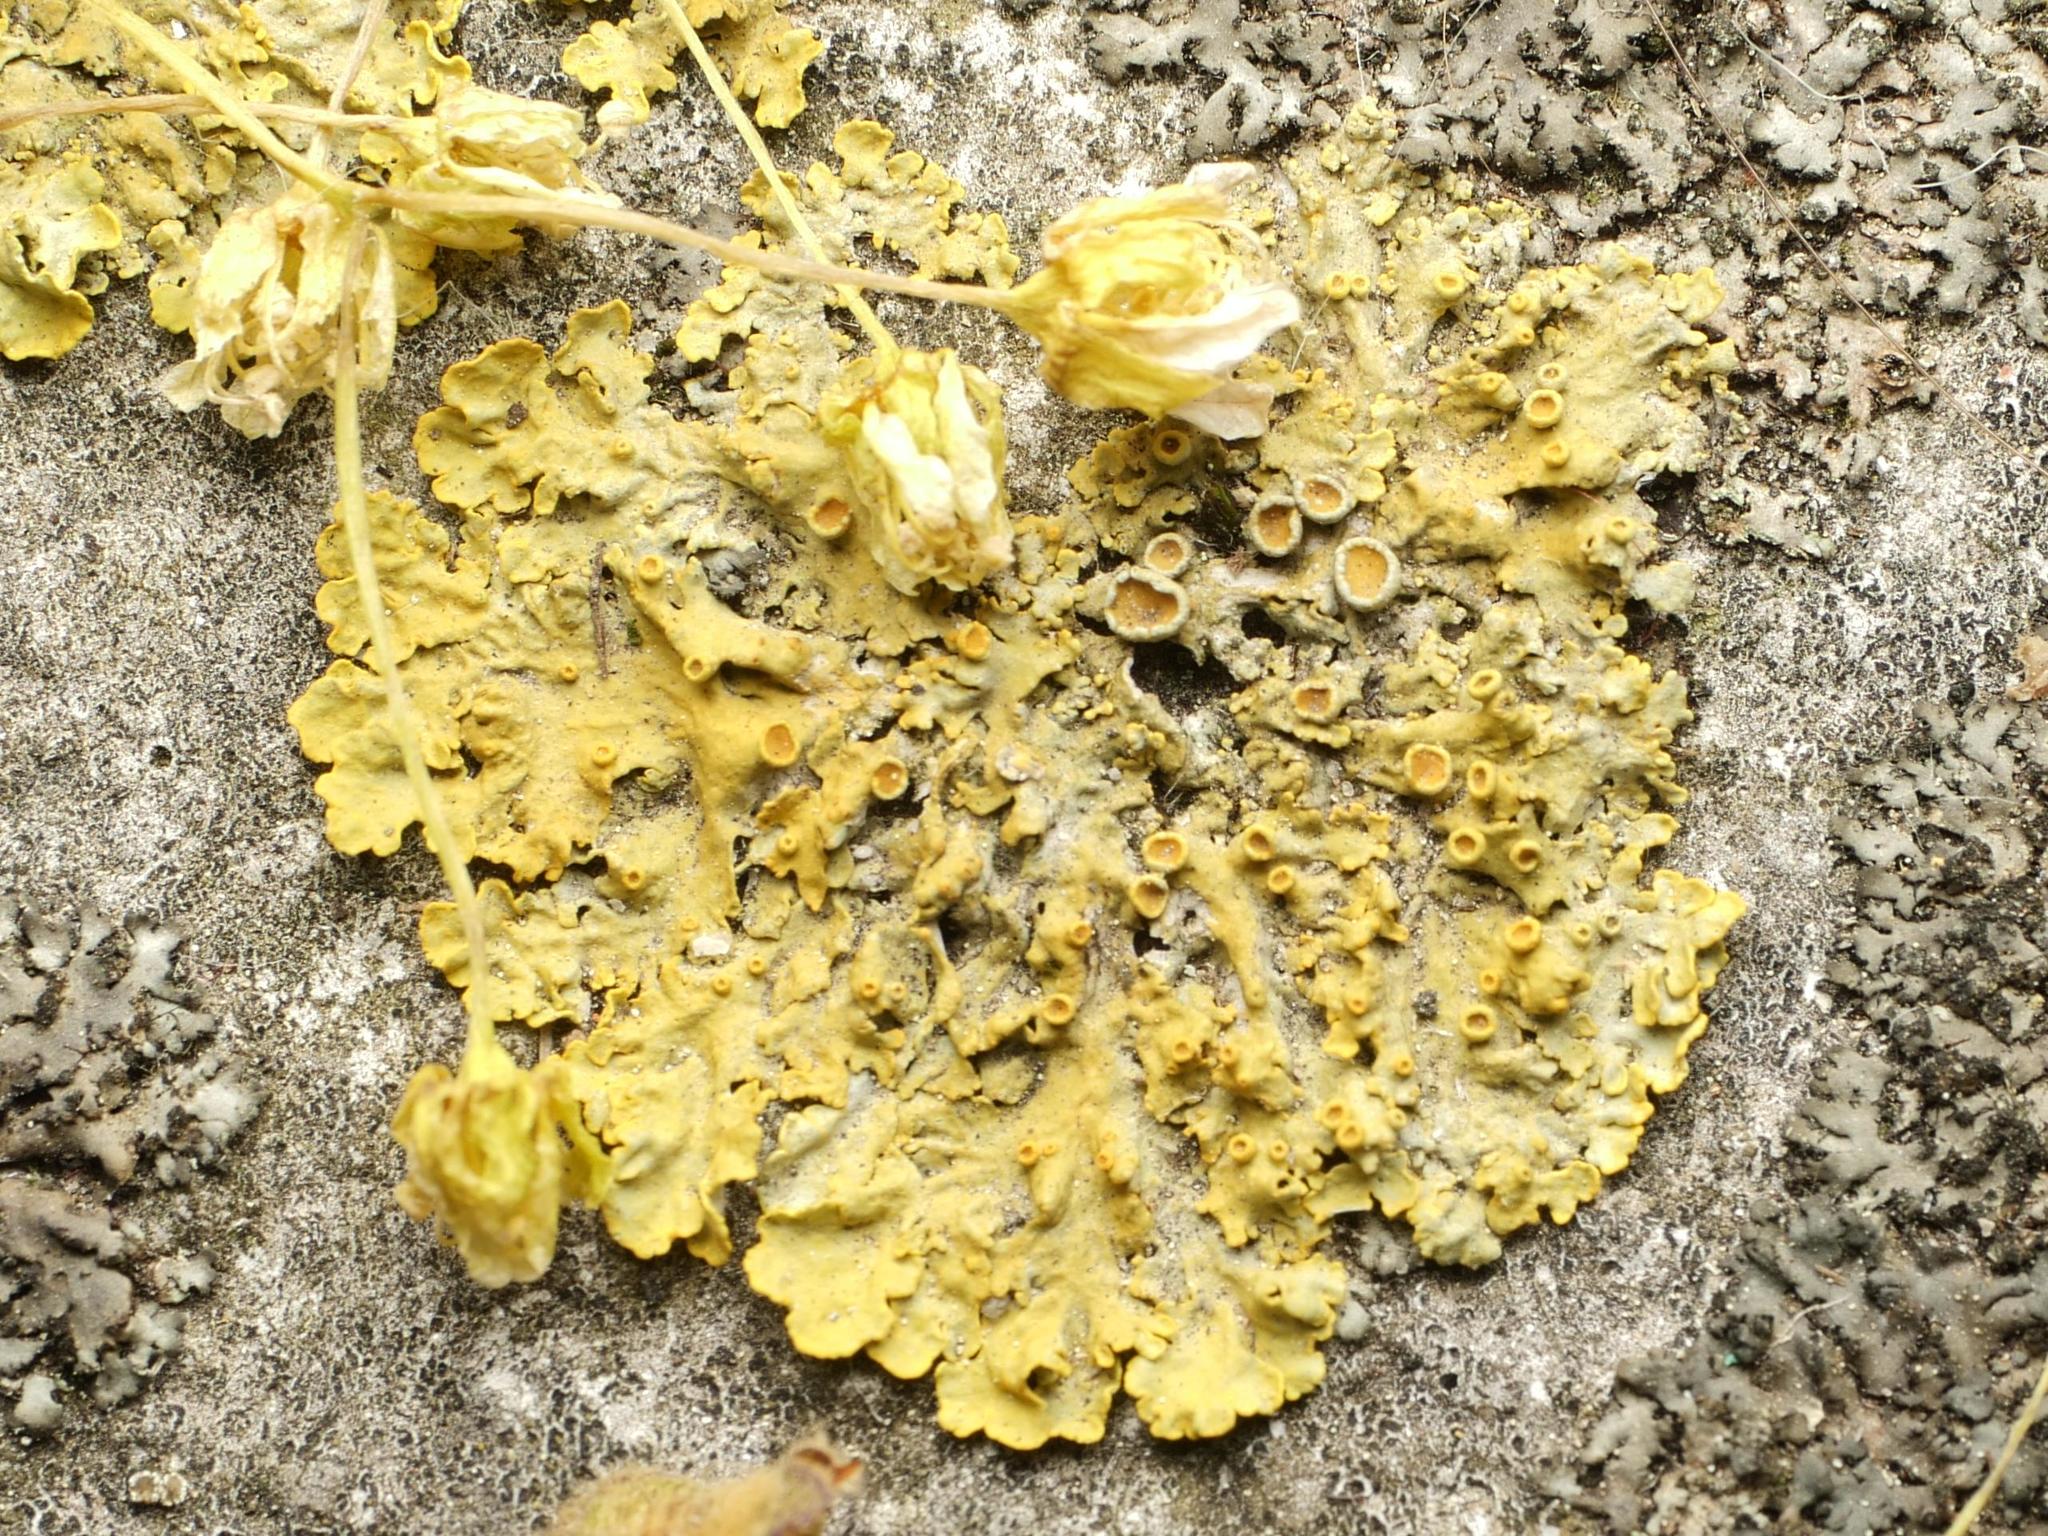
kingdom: Fungi
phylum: Ascomycota
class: Lecanoromycetes
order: Teloschistales
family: Teloschistaceae
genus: Xanthoria
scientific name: Xanthoria parietina
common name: Common orange lichen
